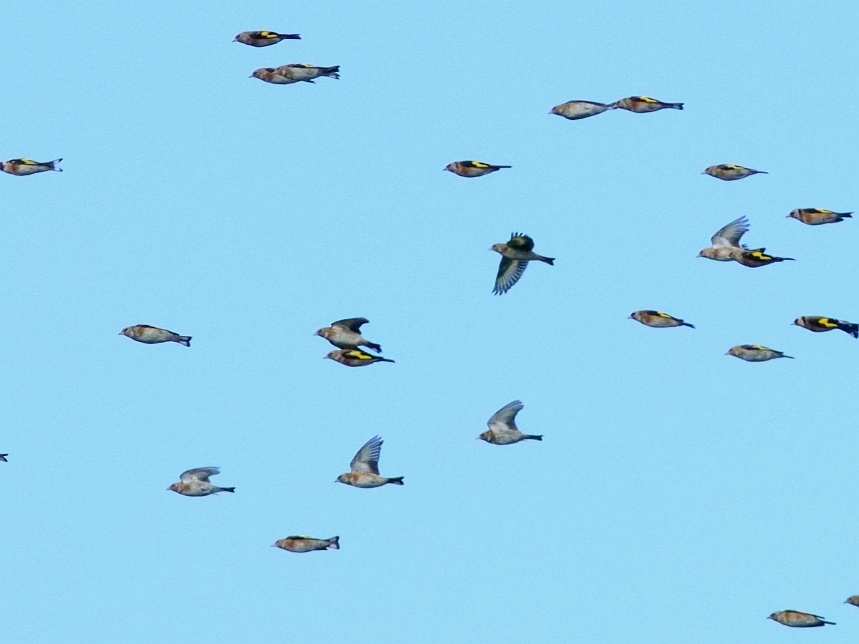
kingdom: Animalia
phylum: Chordata
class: Aves
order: Passeriformes
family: Fringillidae
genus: Carduelis
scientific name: Carduelis carduelis
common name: European goldfinch
